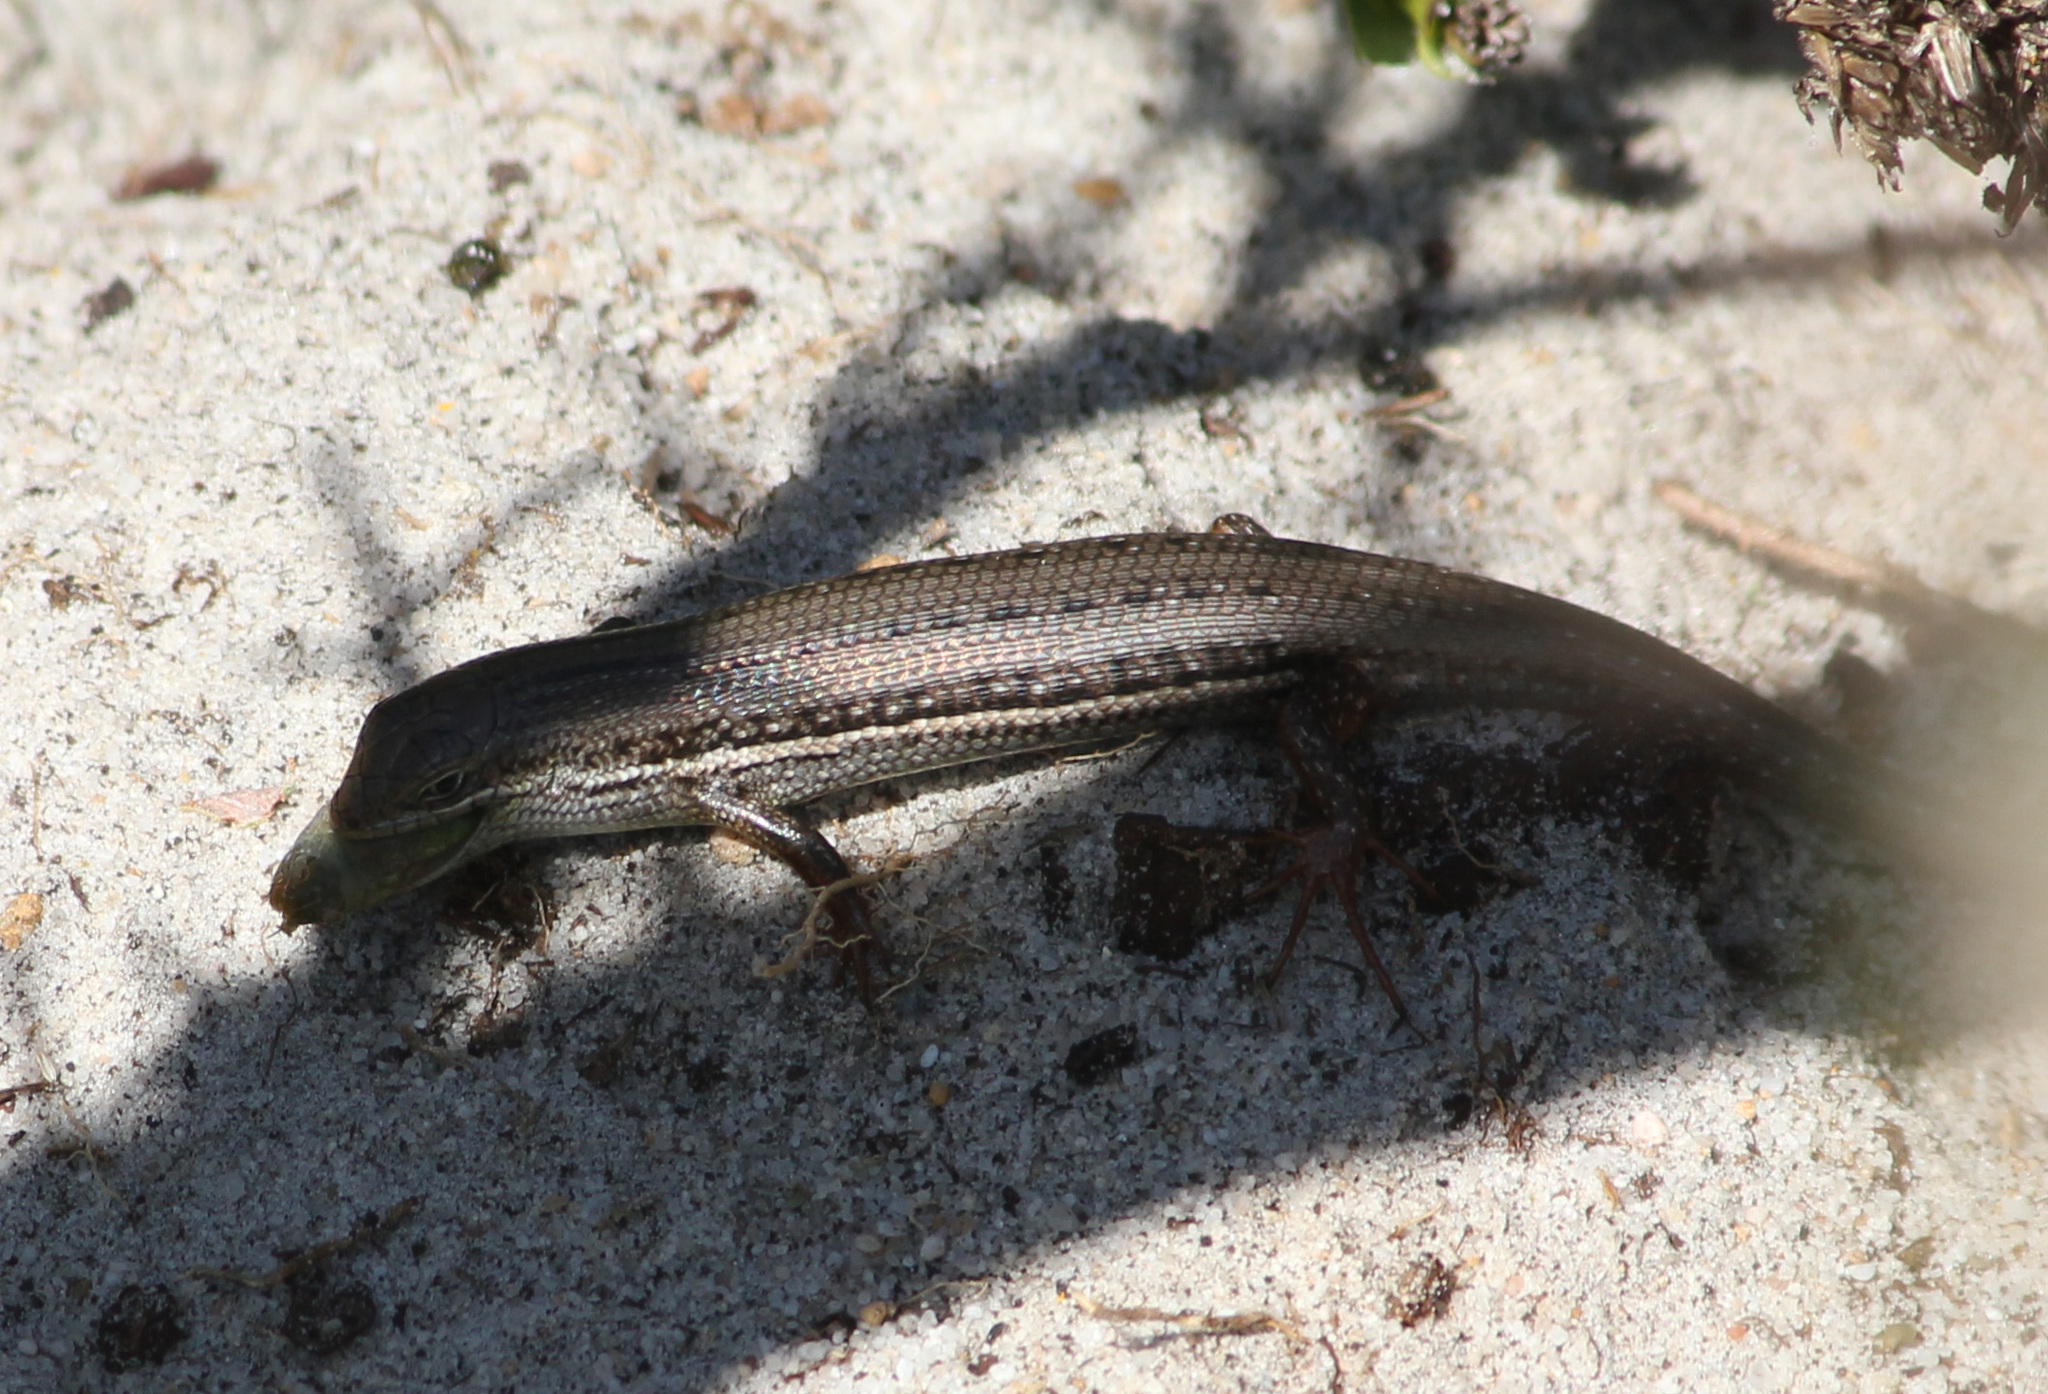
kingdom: Animalia
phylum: Chordata
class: Squamata
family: Scincidae
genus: Trachylepis
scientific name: Trachylepis homalocephala
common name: Red-sided skink
